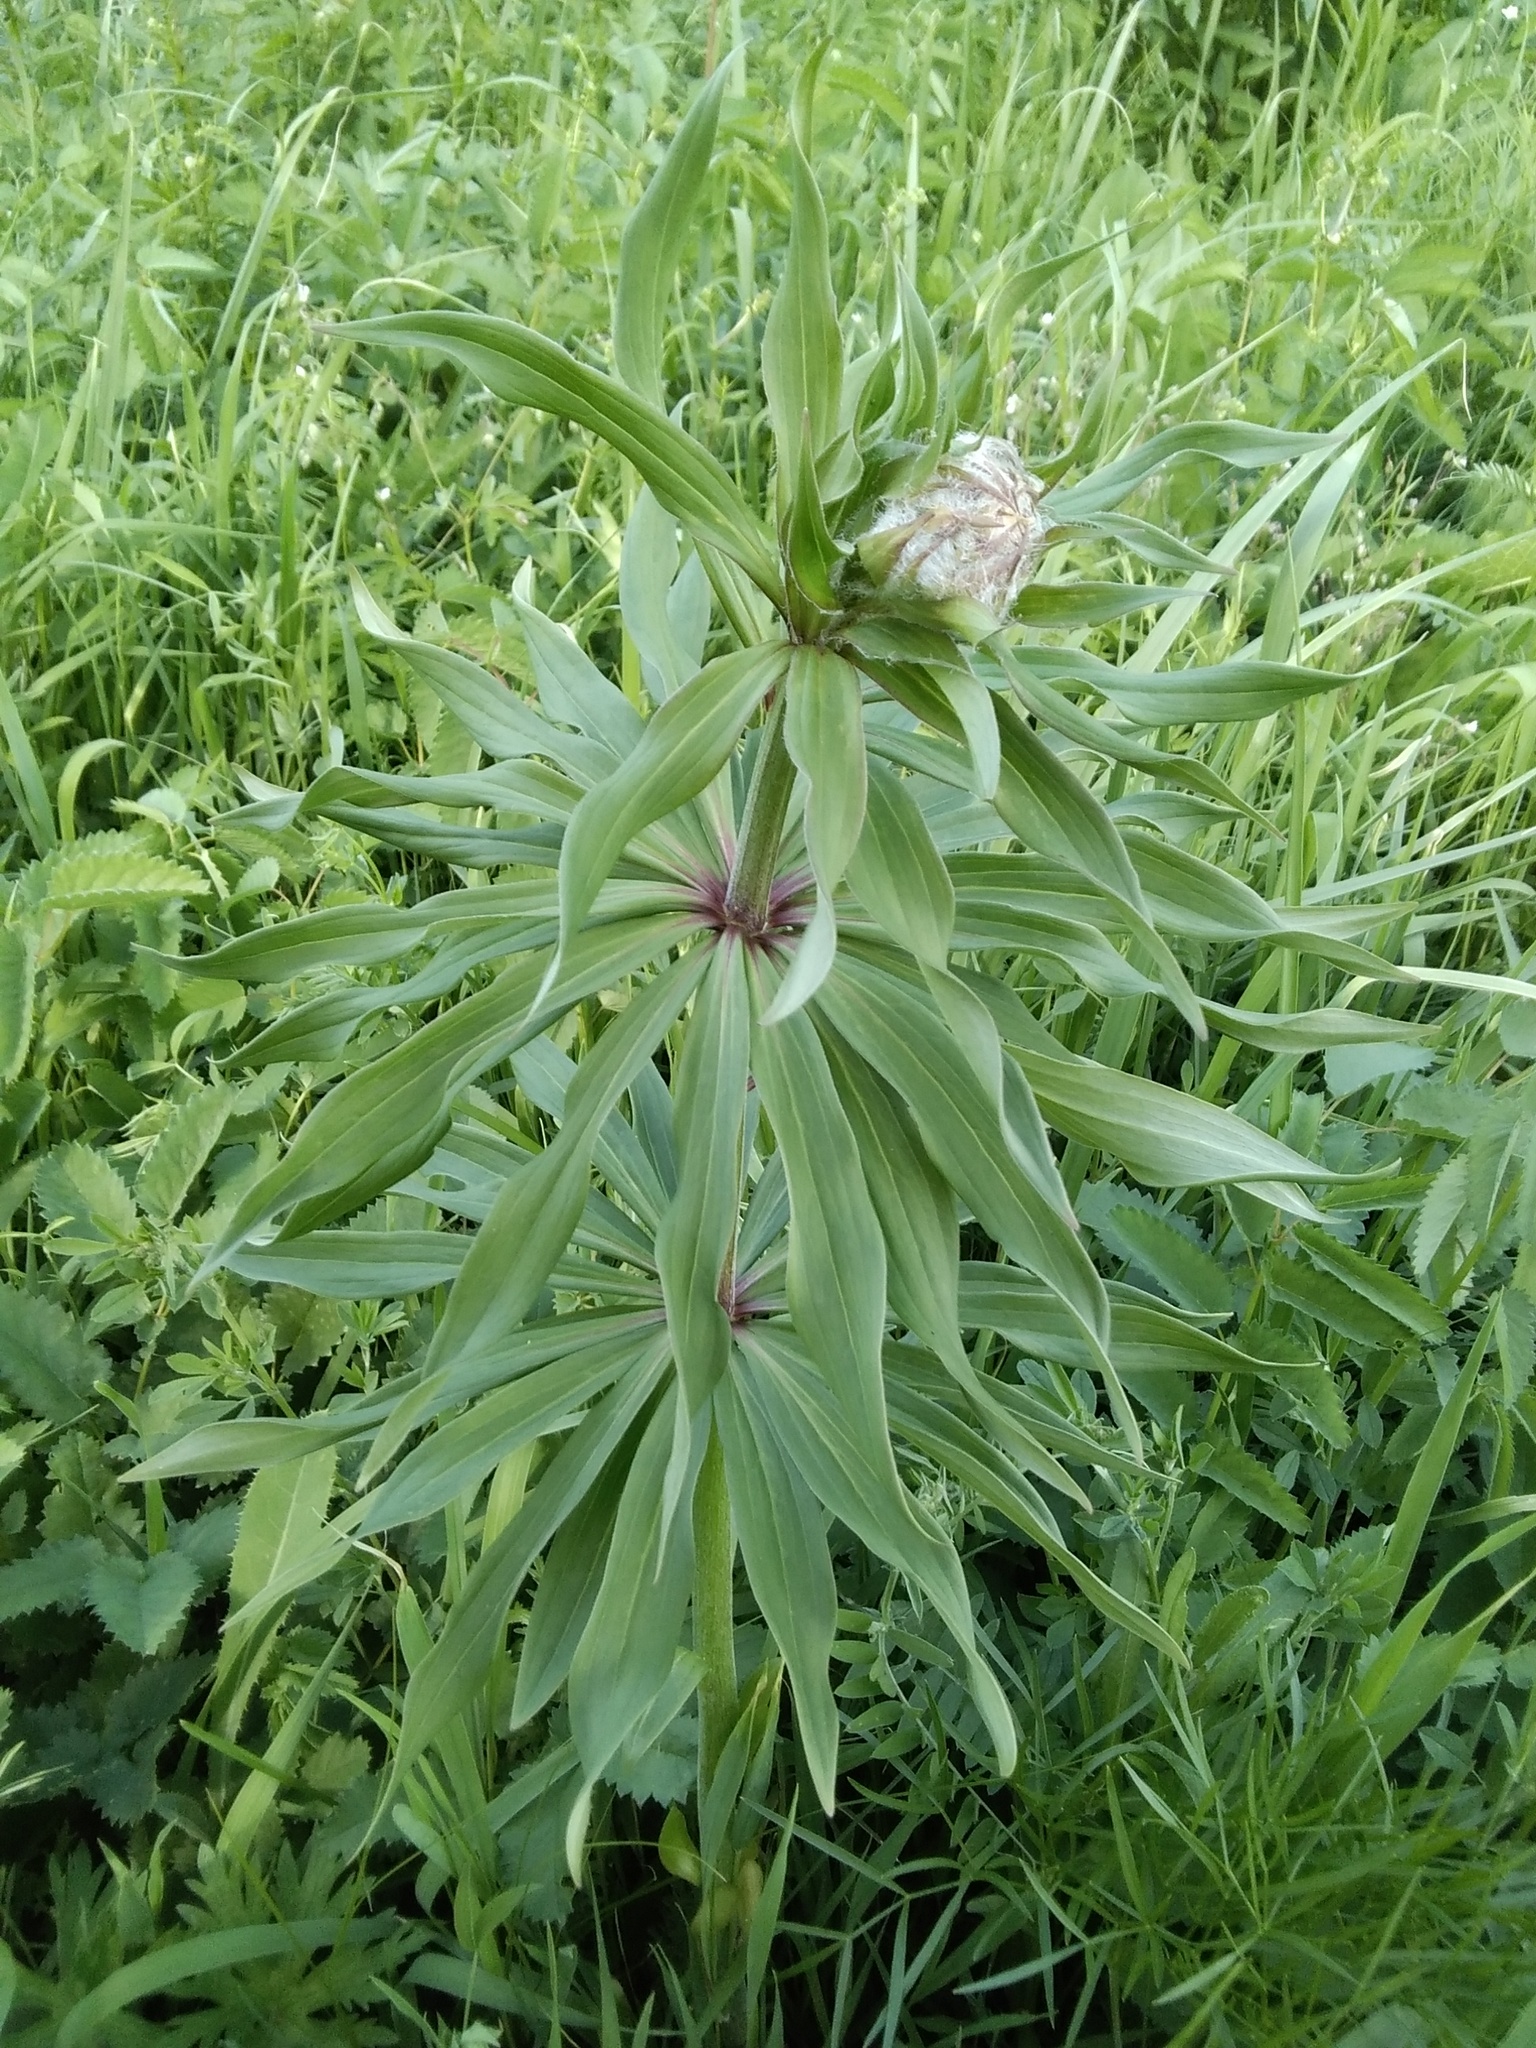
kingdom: Plantae
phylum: Tracheophyta
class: Liliopsida
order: Liliales
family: Liliaceae
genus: Lilium
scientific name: Lilium martagon
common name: Martagon lily
